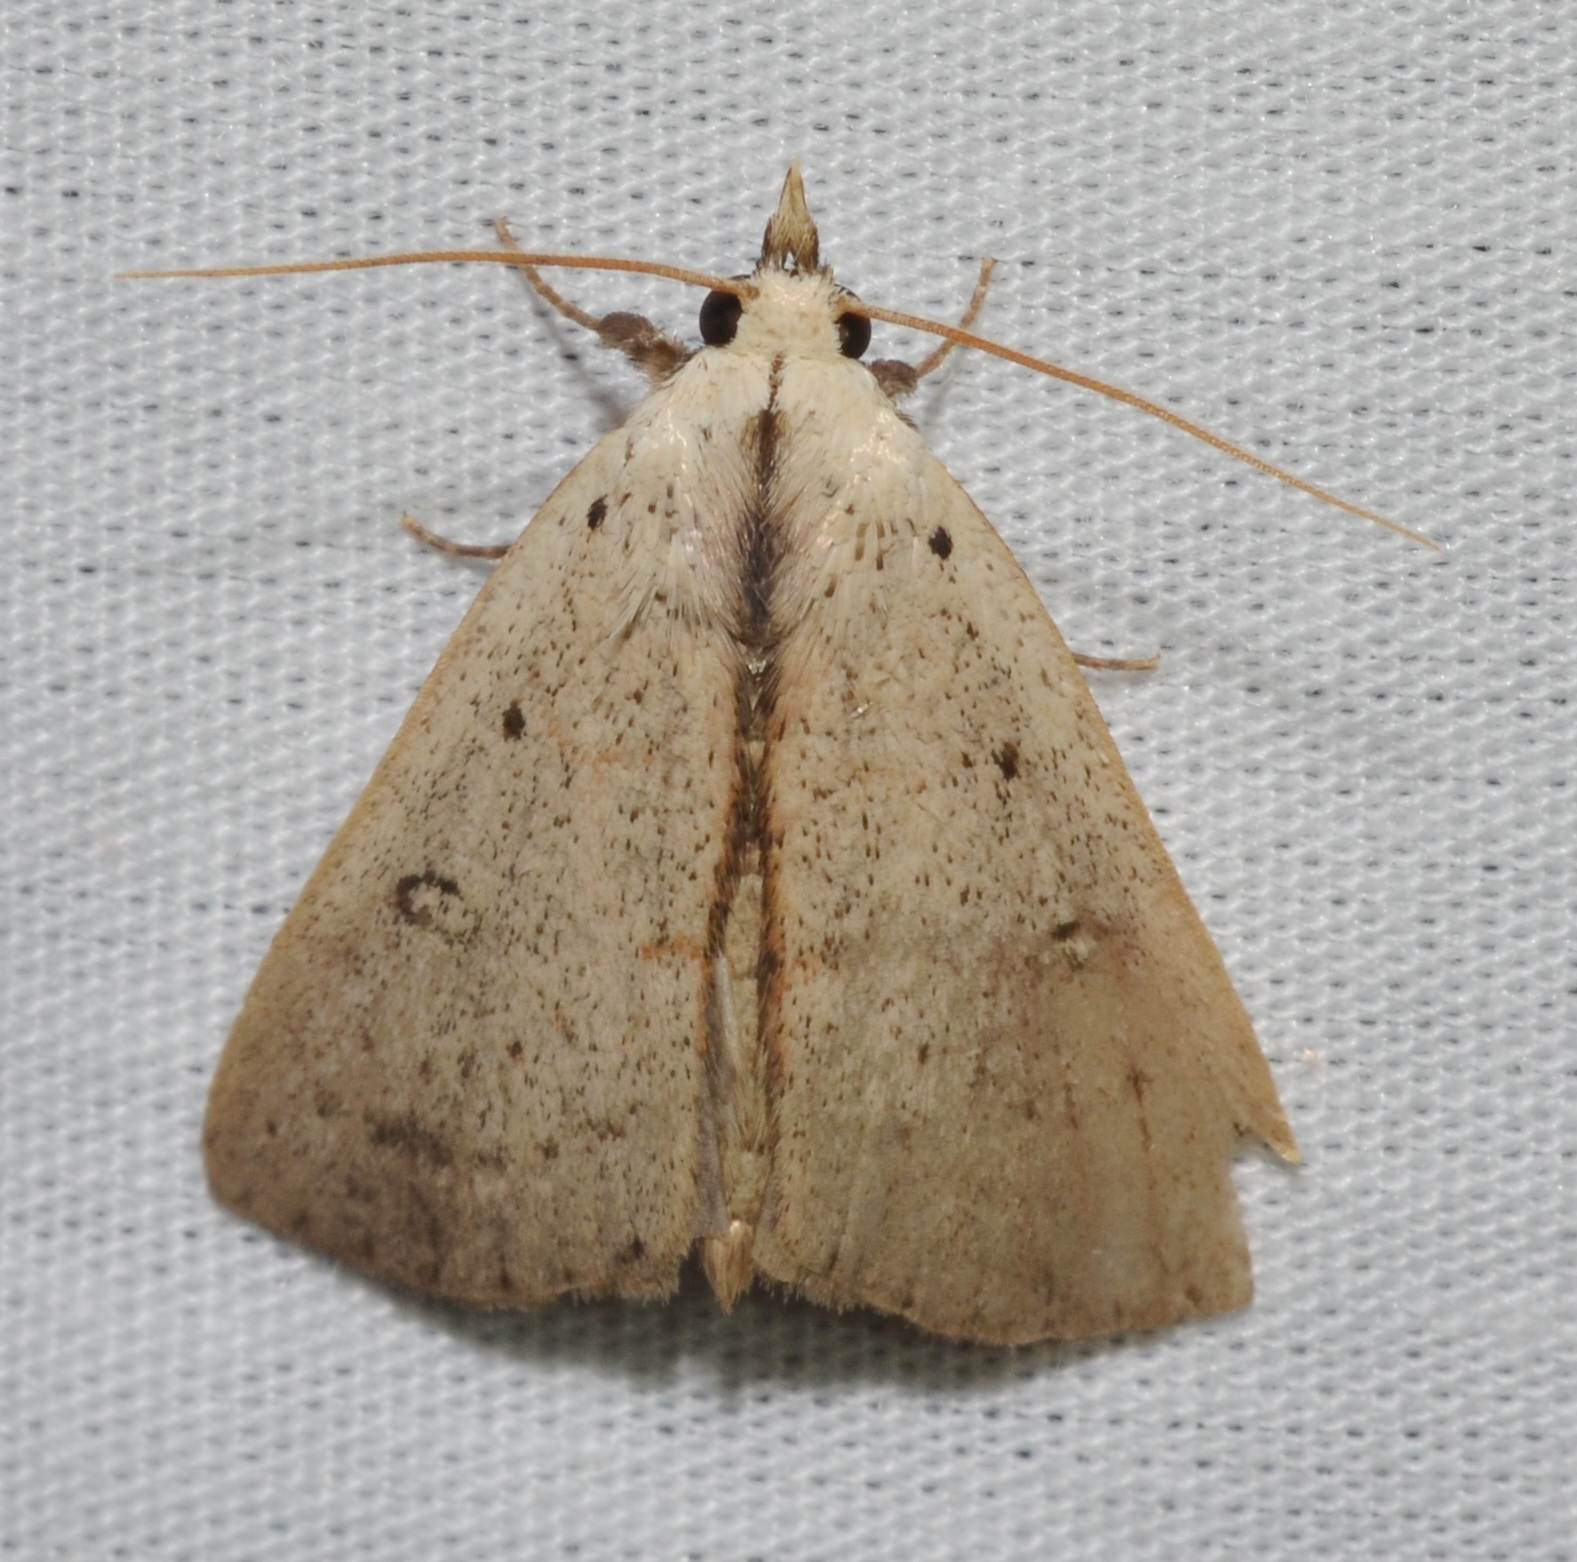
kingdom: Animalia
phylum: Arthropoda
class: Insecta
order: Lepidoptera
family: Erebidae
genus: Scolecocampa
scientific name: Scolecocampa liburna
